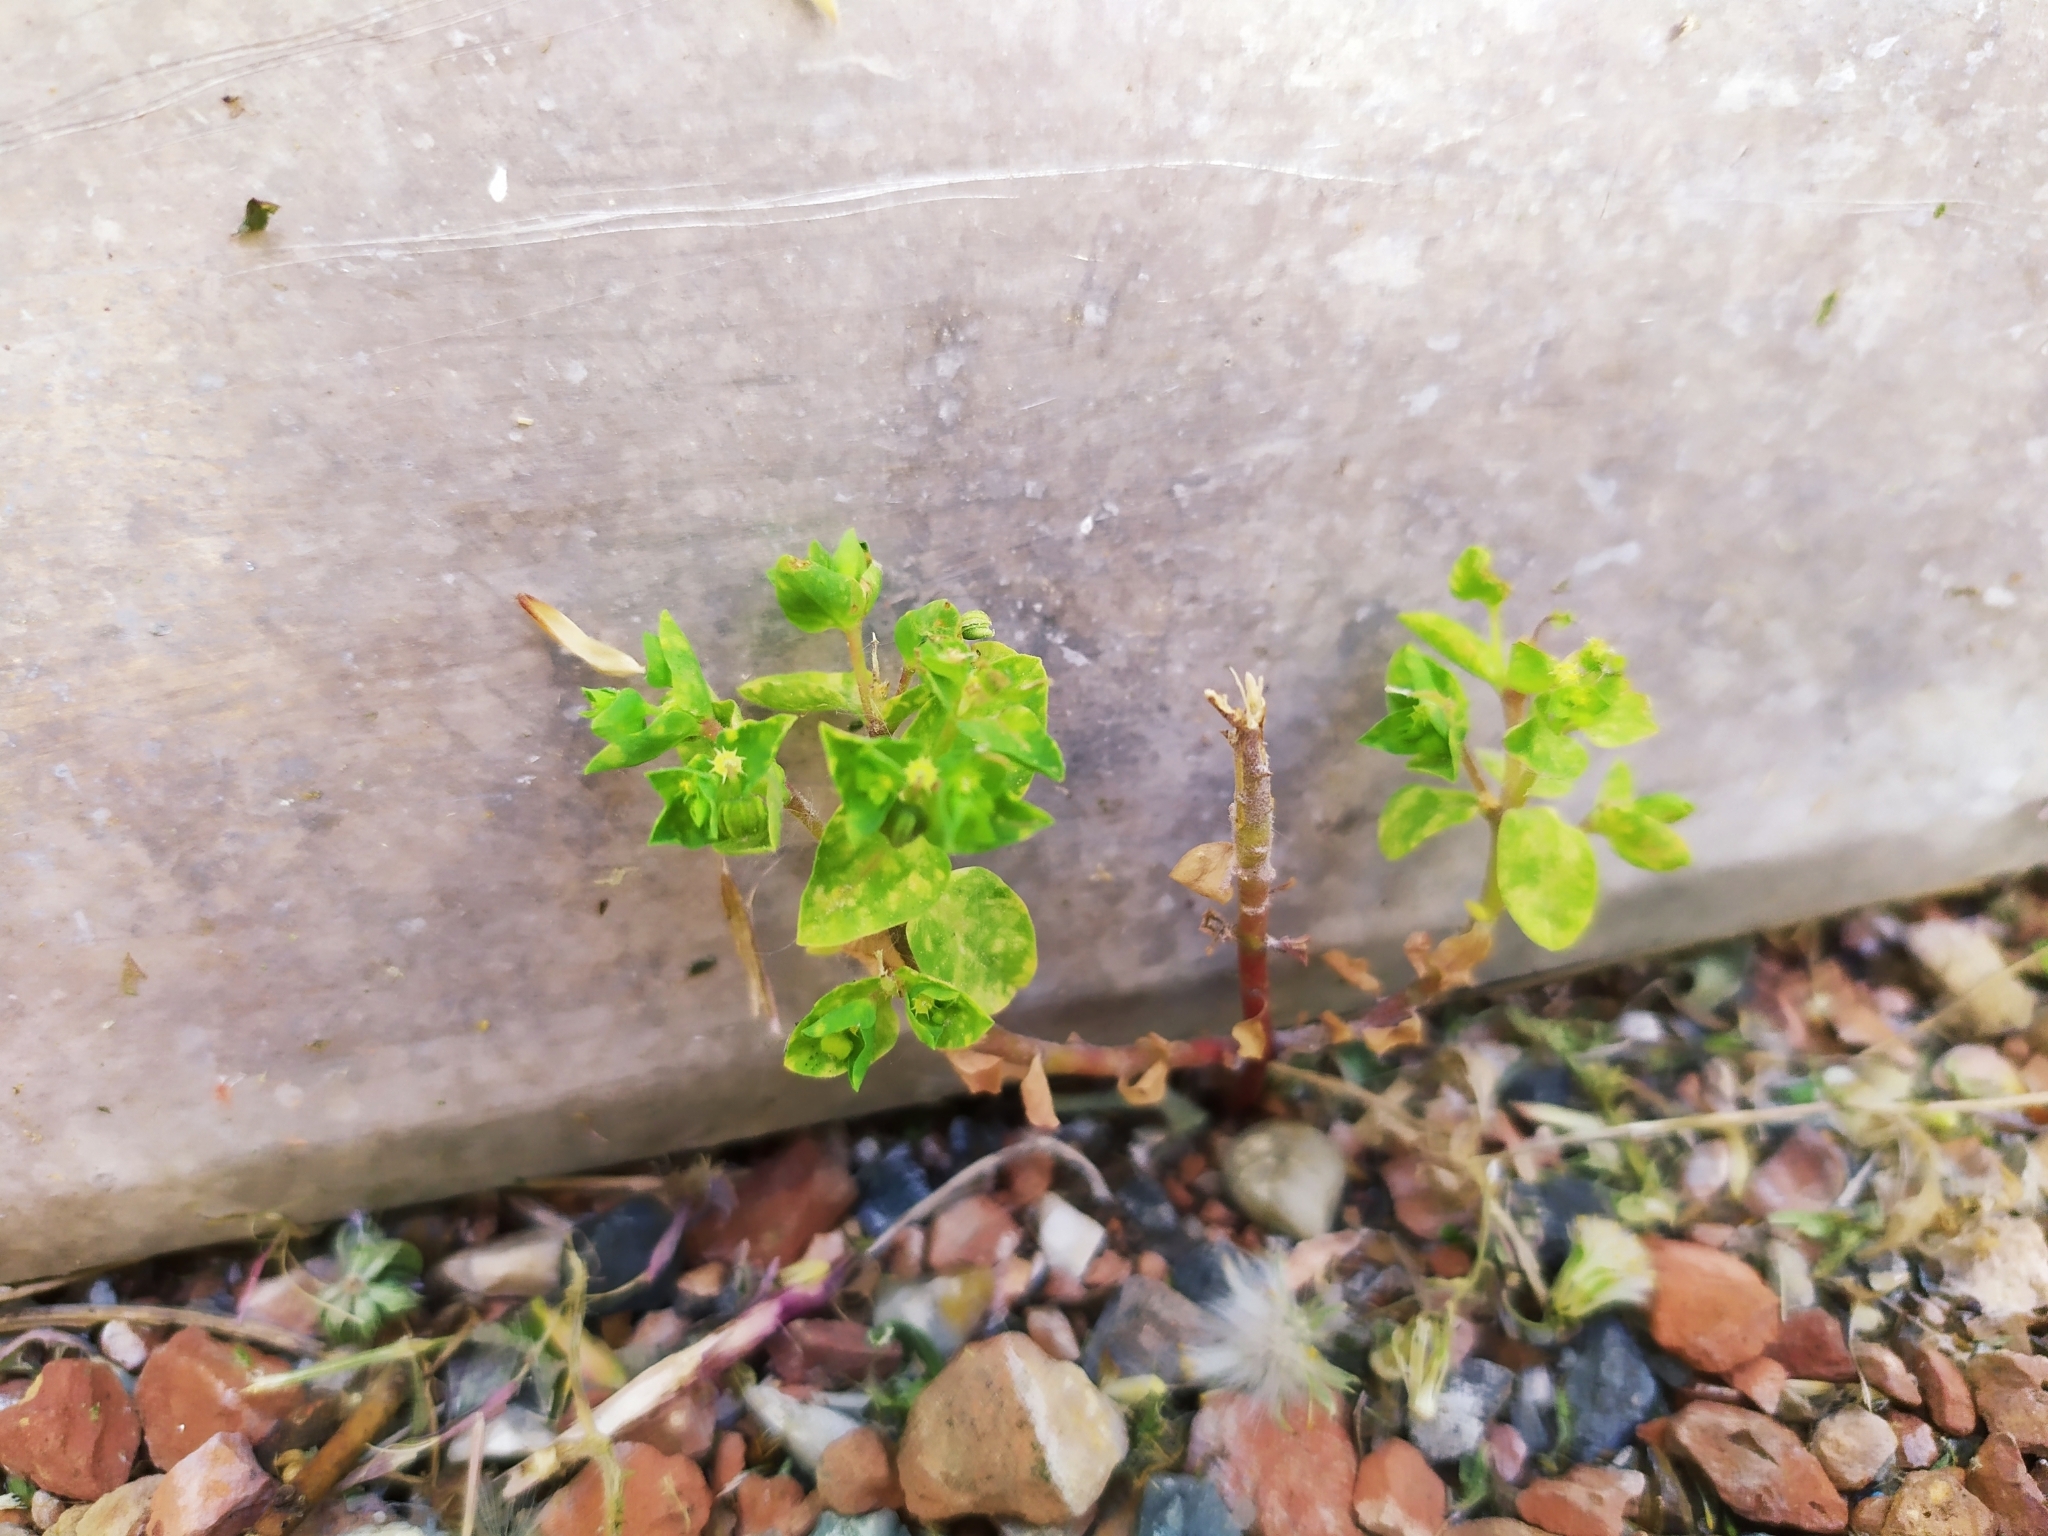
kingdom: Plantae
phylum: Tracheophyta
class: Magnoliopsida
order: Malpighiales
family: Euphorbiaceae
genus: Euphorbia
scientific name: Euphorbia peplus
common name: Petty spurge
